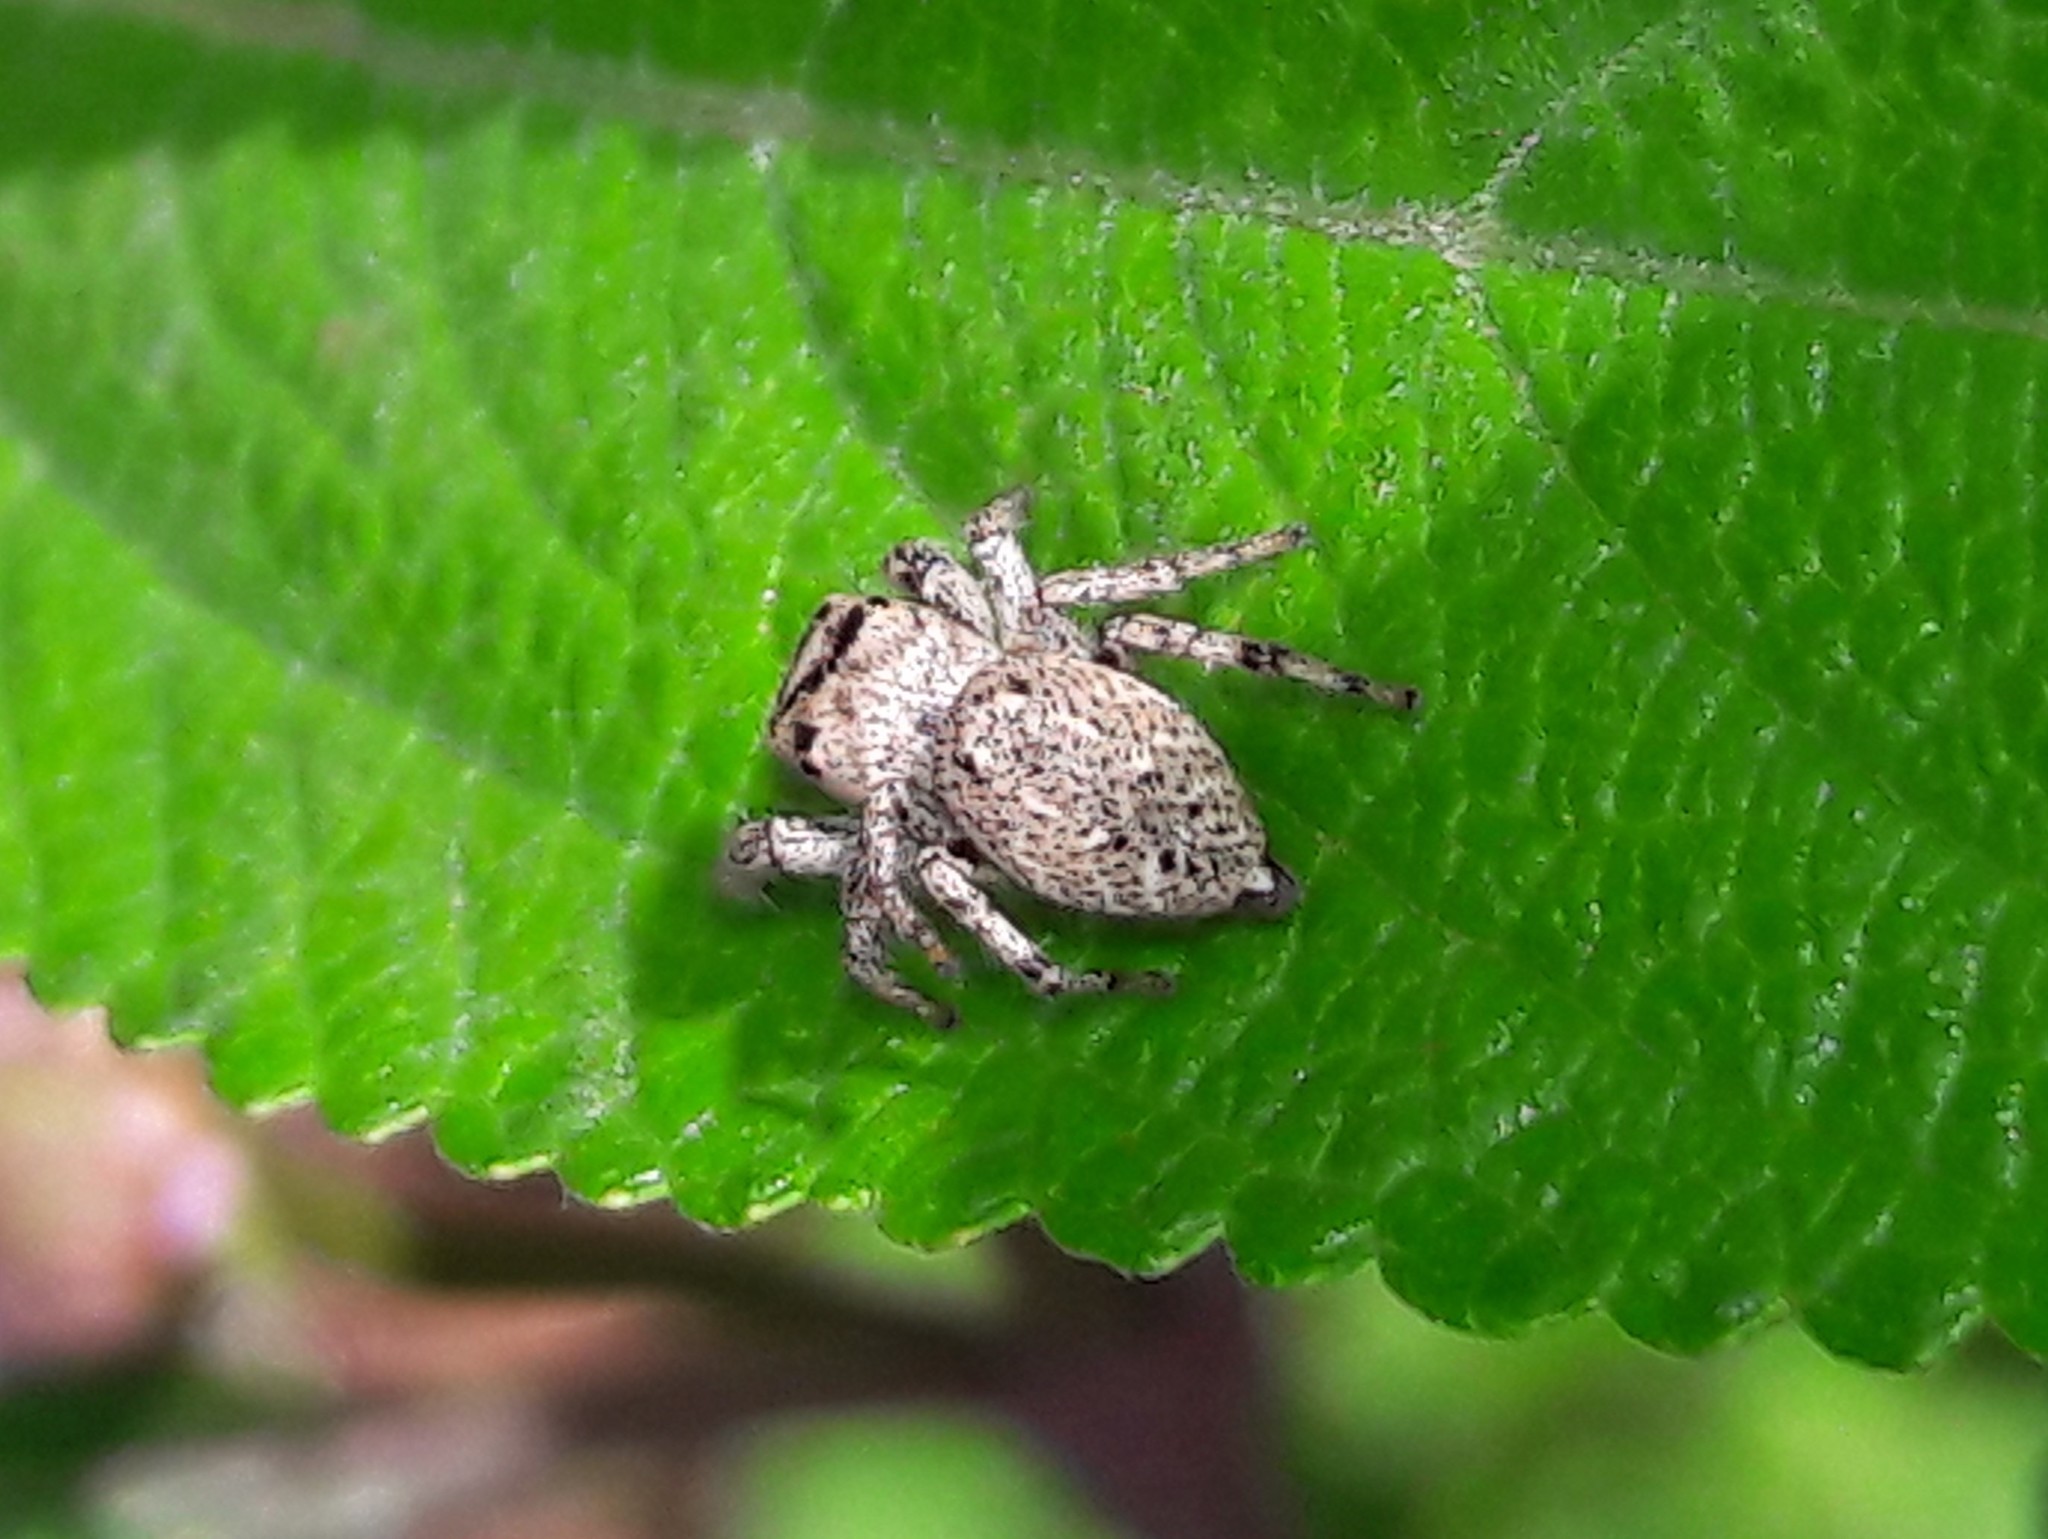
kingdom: Animalia
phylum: Arthropoda
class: Arachnida
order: Araneae
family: Salticidae
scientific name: Salticidae
